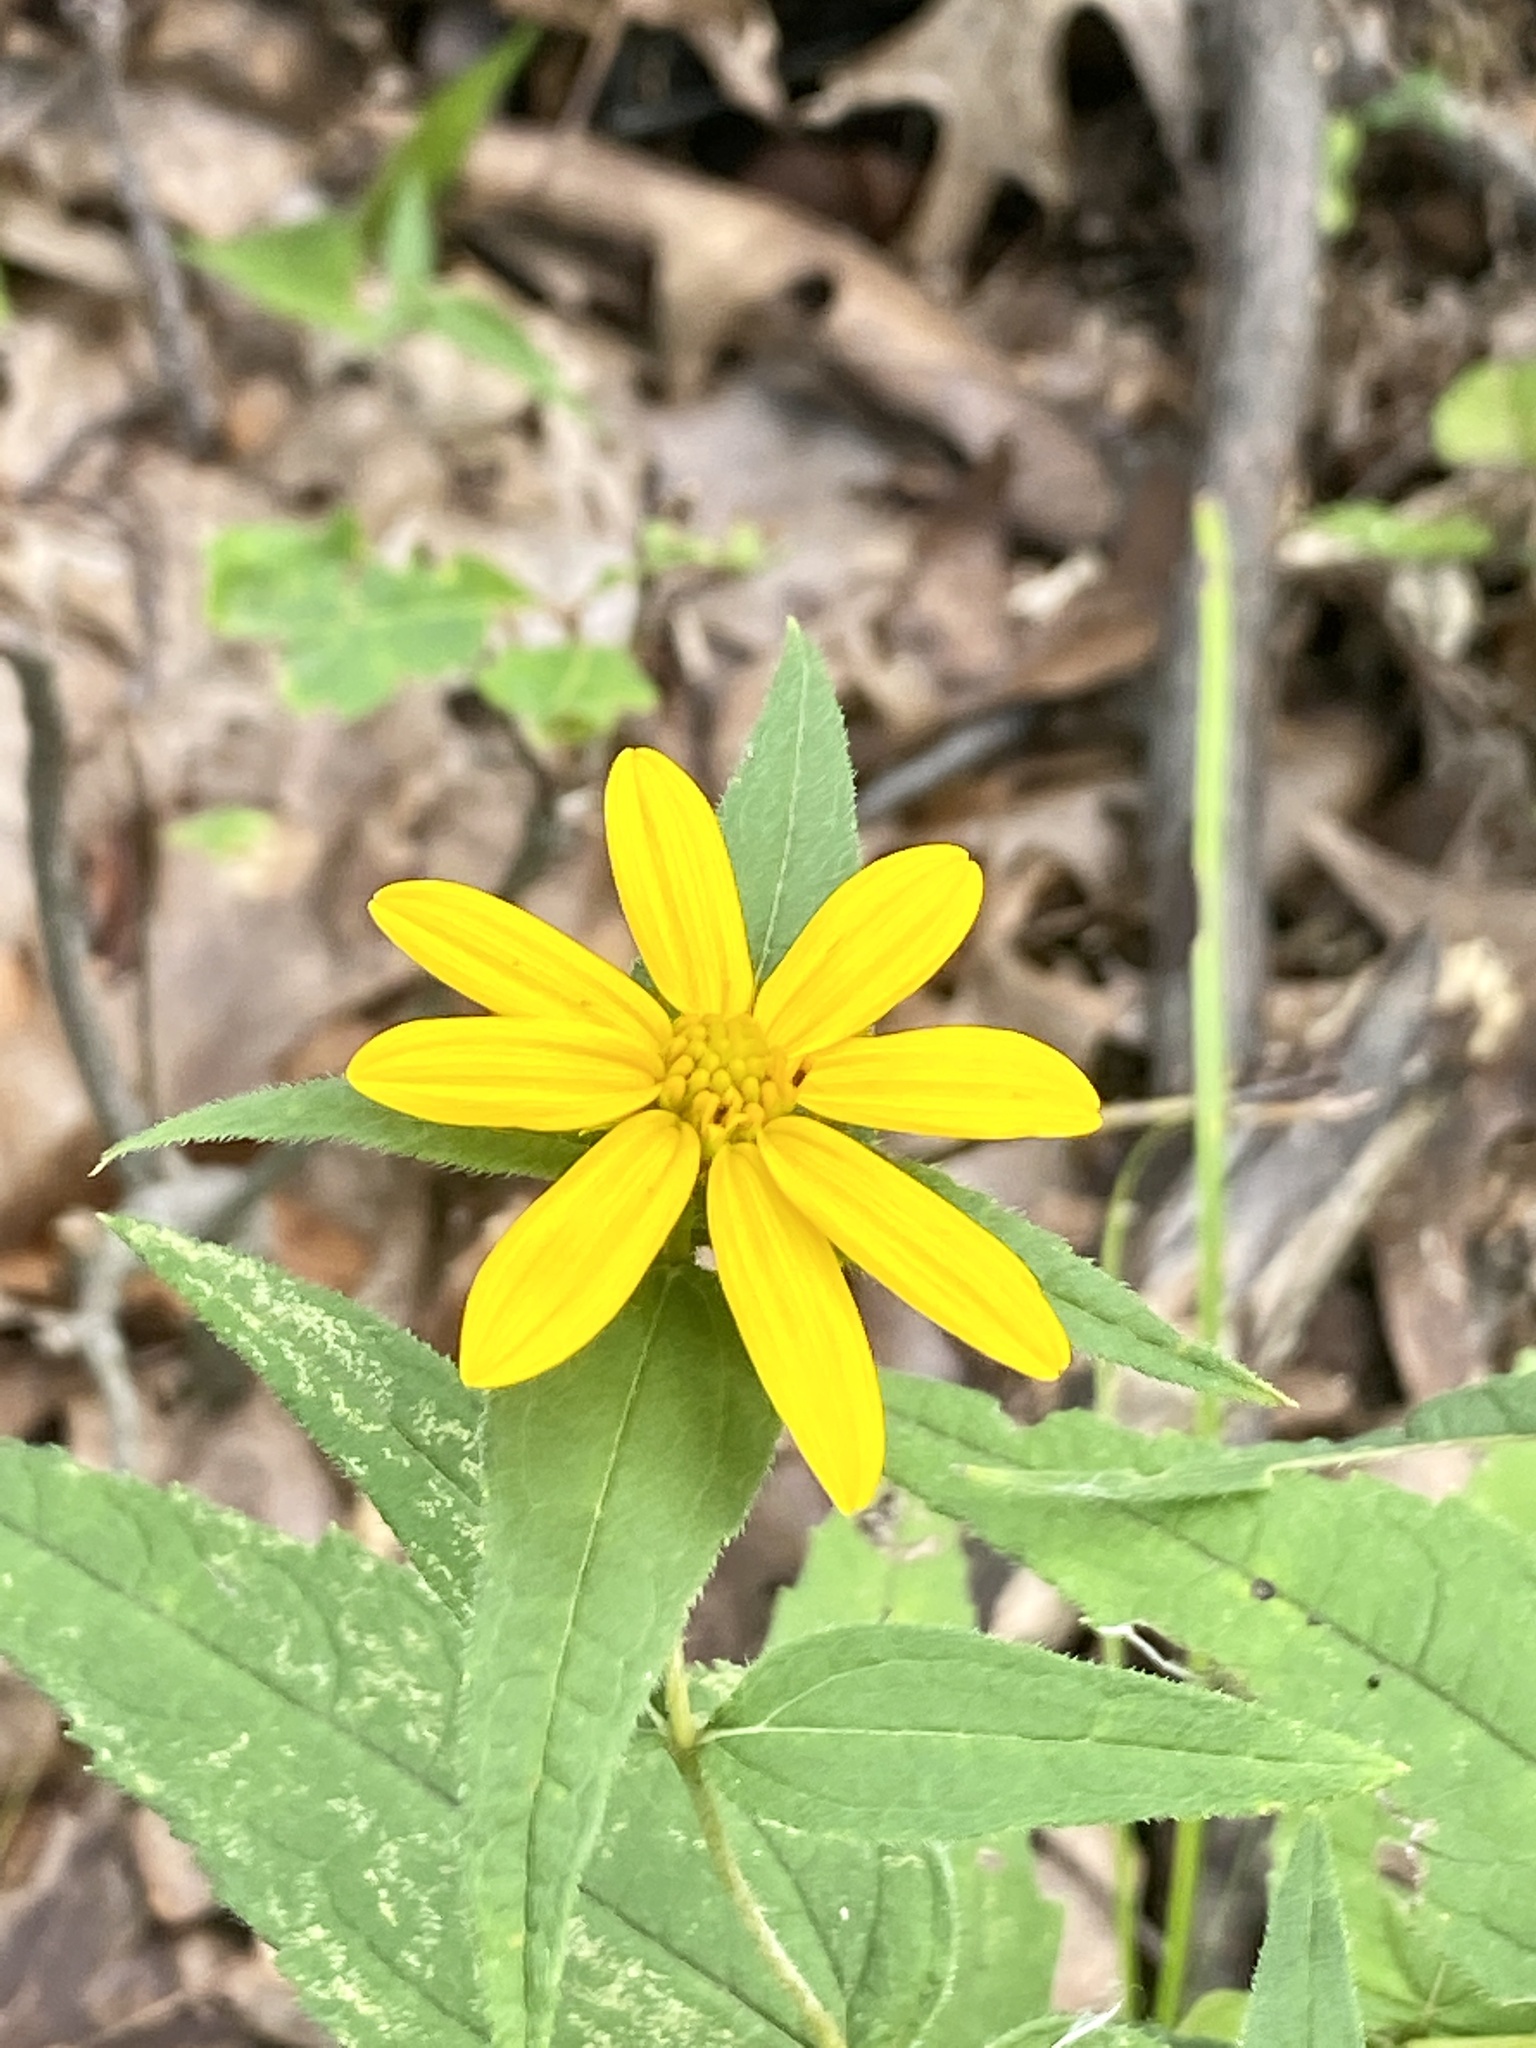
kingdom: Plantae
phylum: Tracheophyta
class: Magnoliopsida
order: Asterales
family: Asteraceae
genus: Helianthus
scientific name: Helianthus divaricatus
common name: Divergent sunflower
